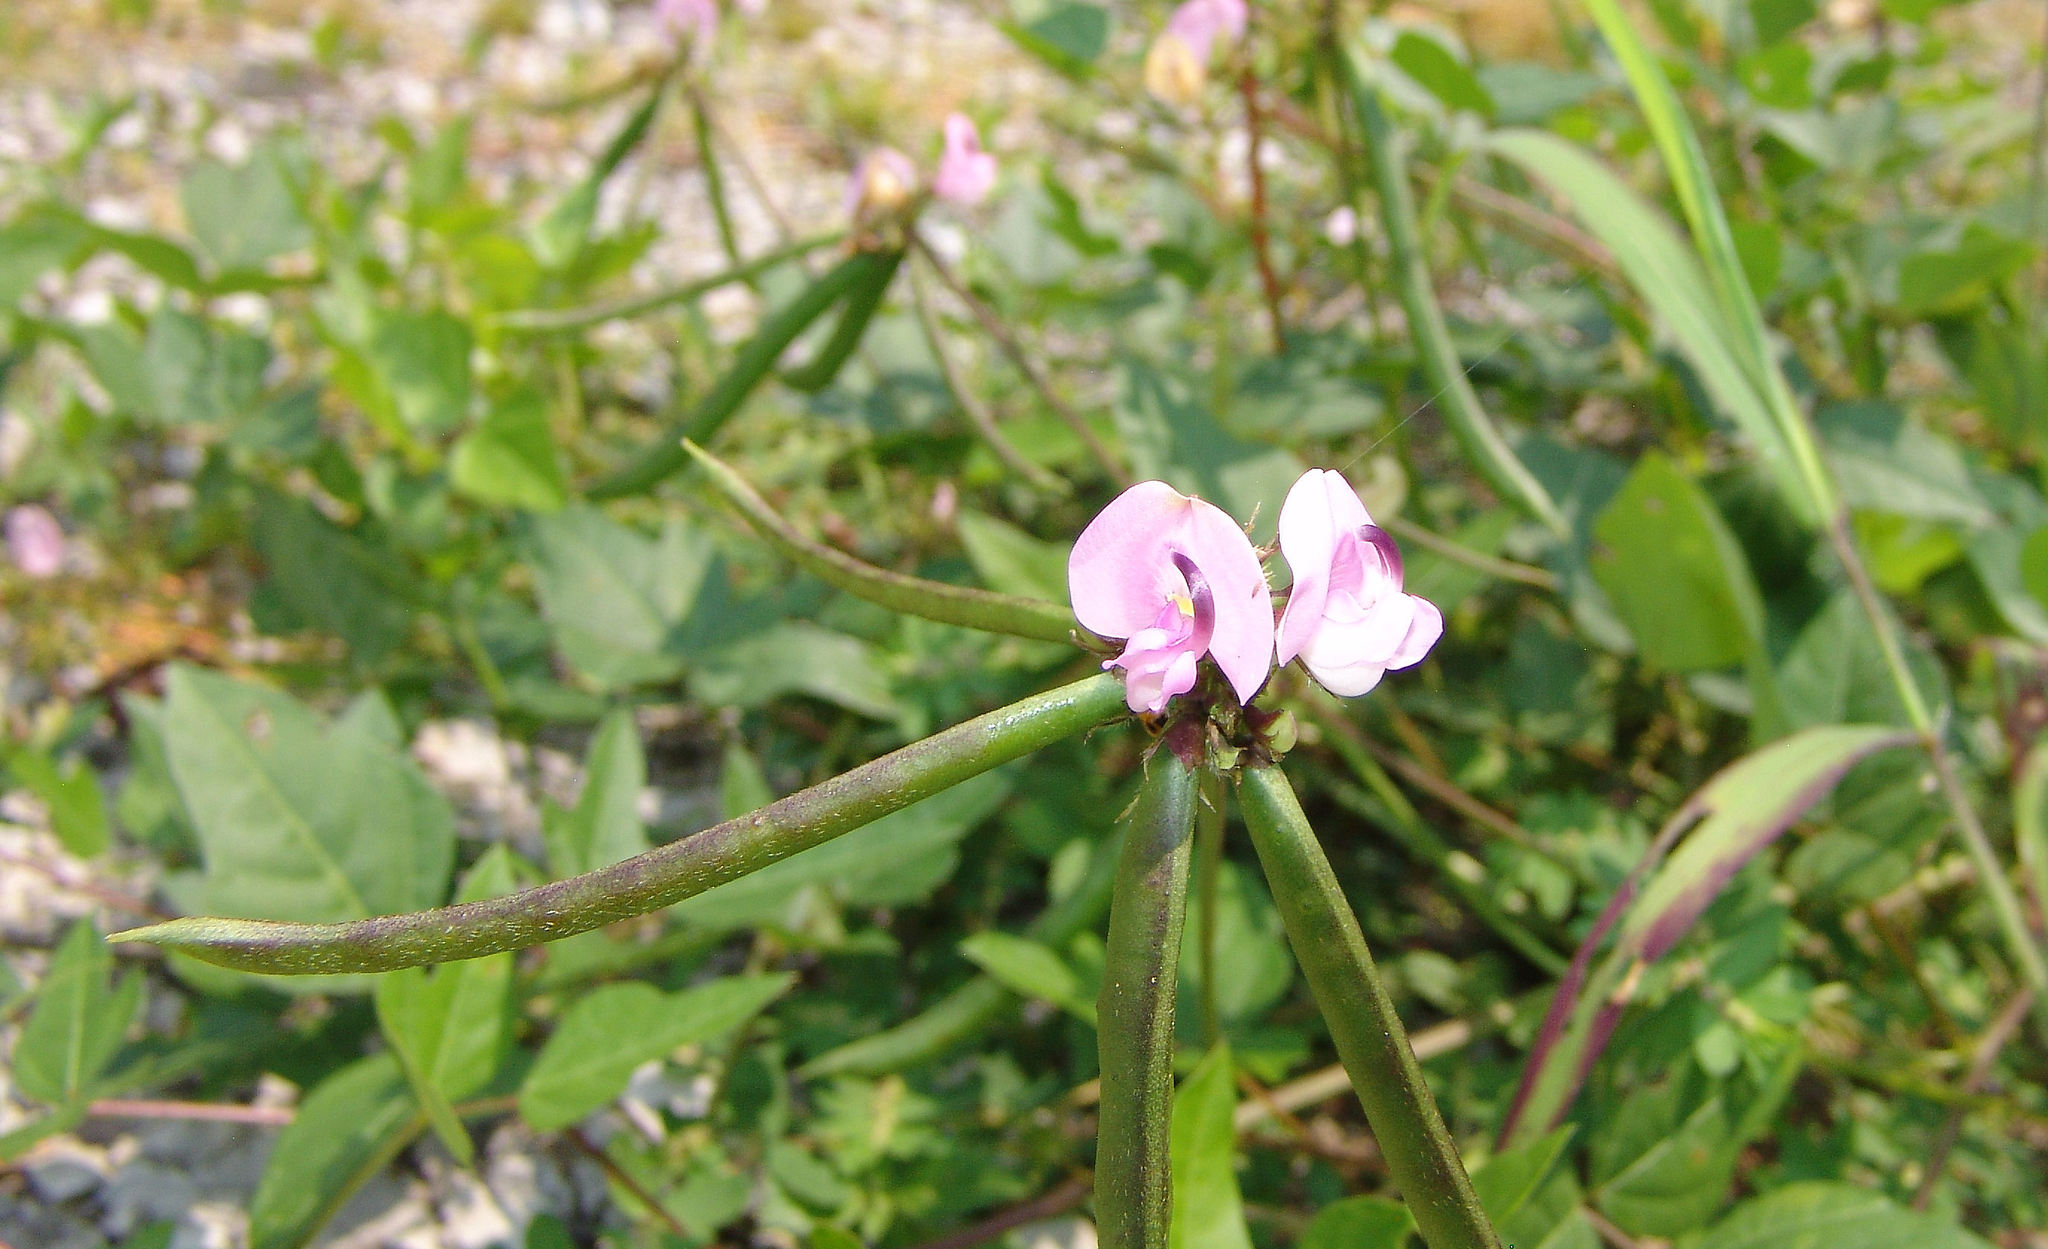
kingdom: Plantae
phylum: Tracheophyta
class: Magnoliopsida
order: Fabales
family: Fabaceae
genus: Strophostyles
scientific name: Strophostyles helvola
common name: Trailing wild bean
